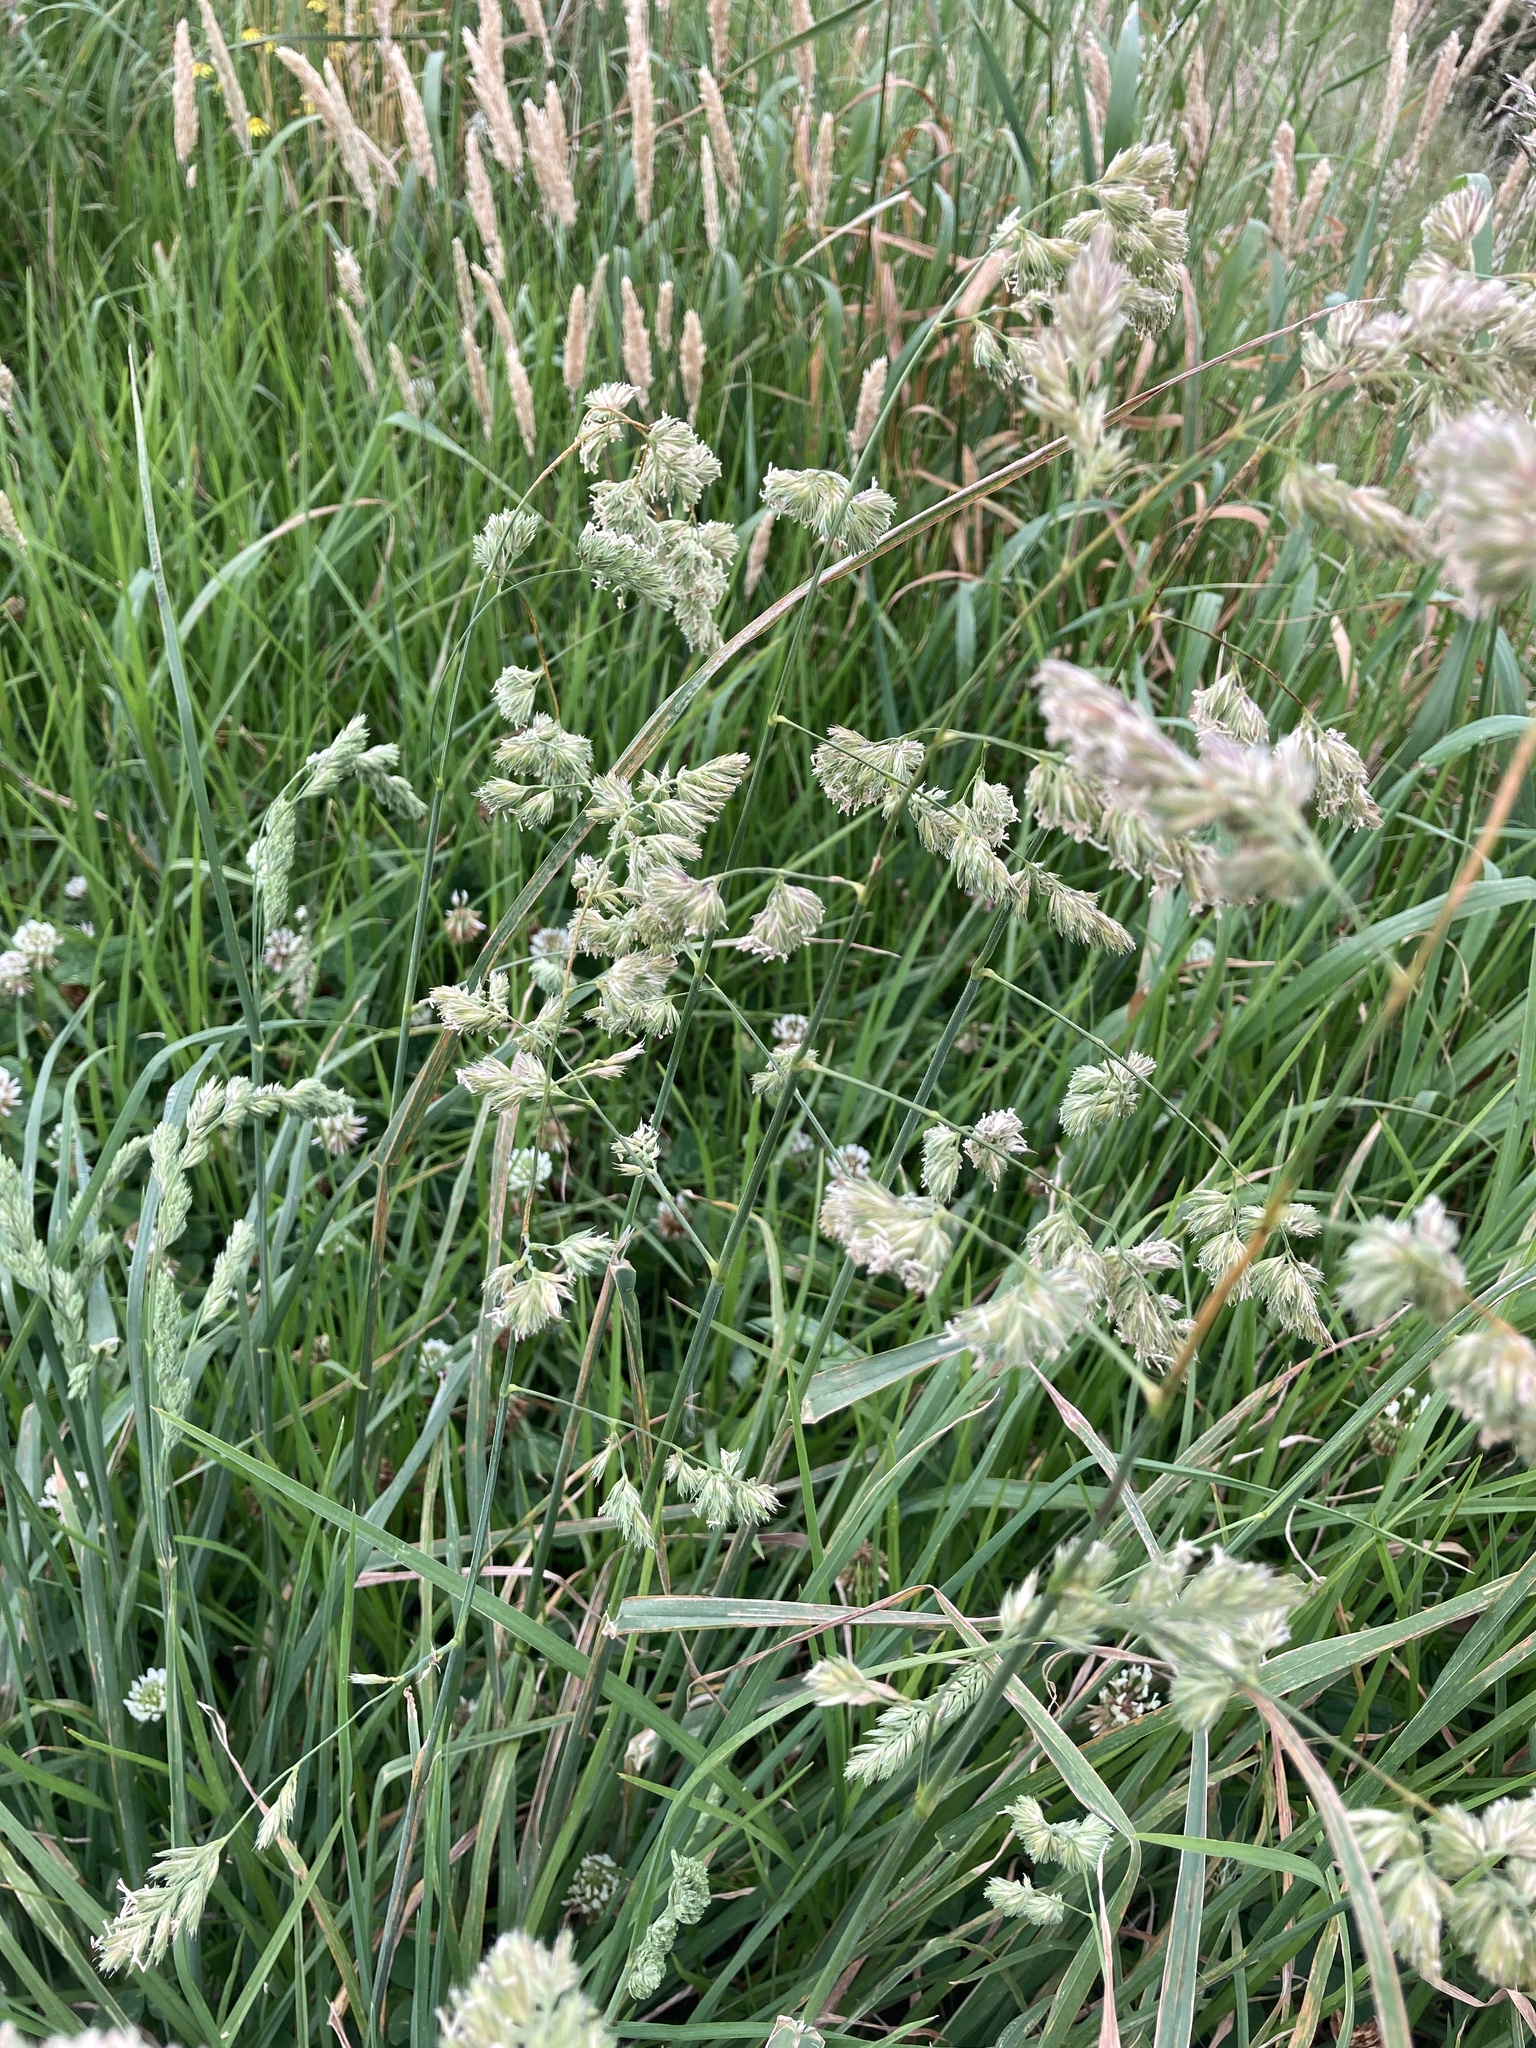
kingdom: Plantae
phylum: Tracheophyta
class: Liliopsida
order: Poales
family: Poaceae
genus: Dactylis
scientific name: Dactylis glomerata
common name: Orchardgrass
